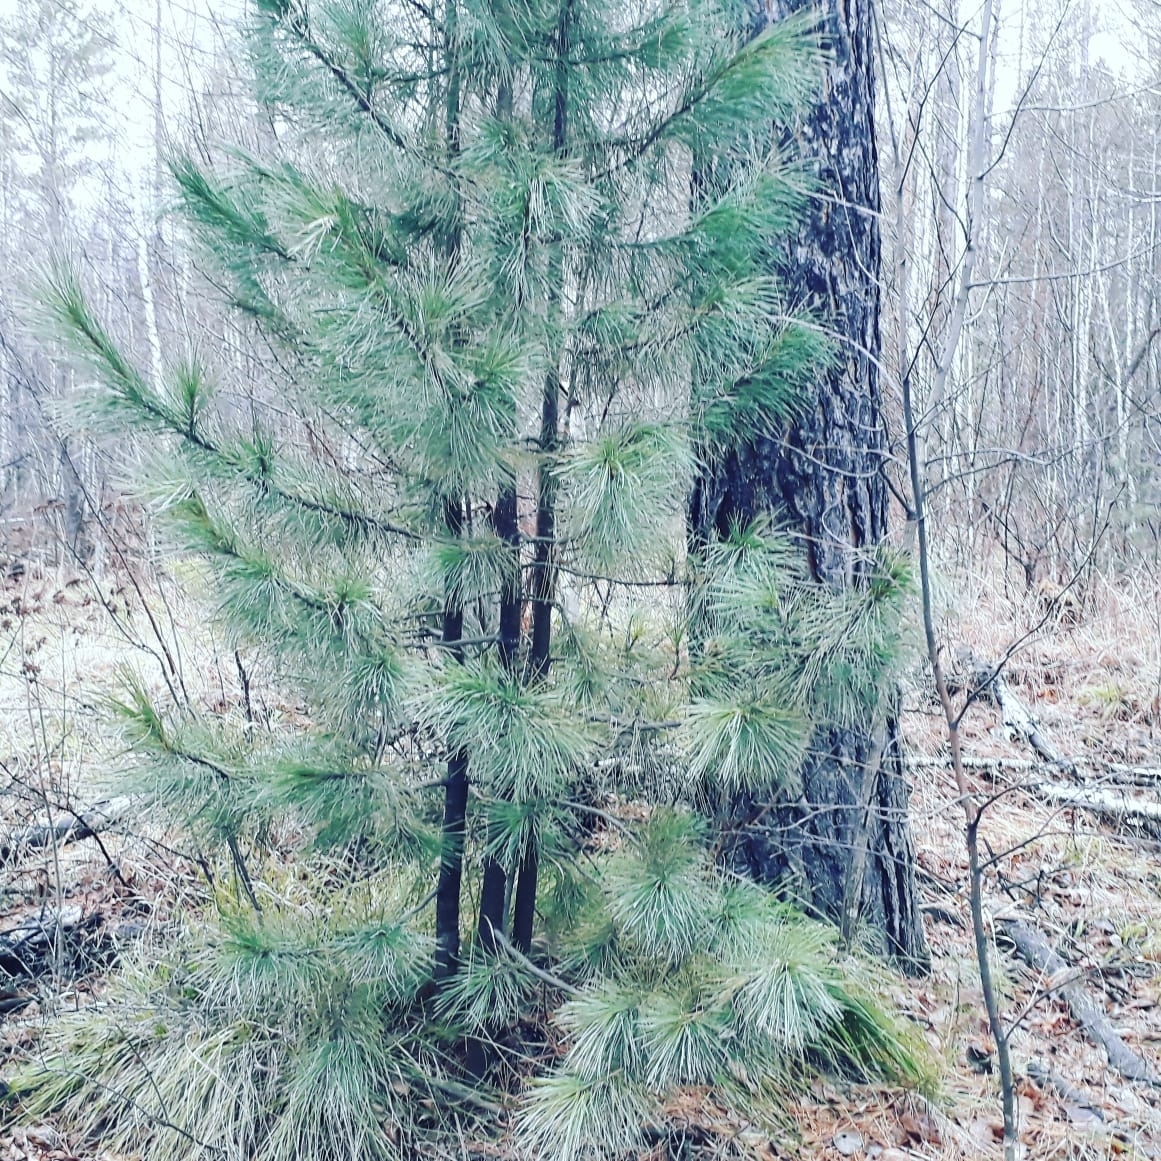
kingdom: Plantae
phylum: Tracheophyta
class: Pinopsida
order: Pinales
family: Pinaceae
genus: Pinus
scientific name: Pinus sibirica
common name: Siberian pine
